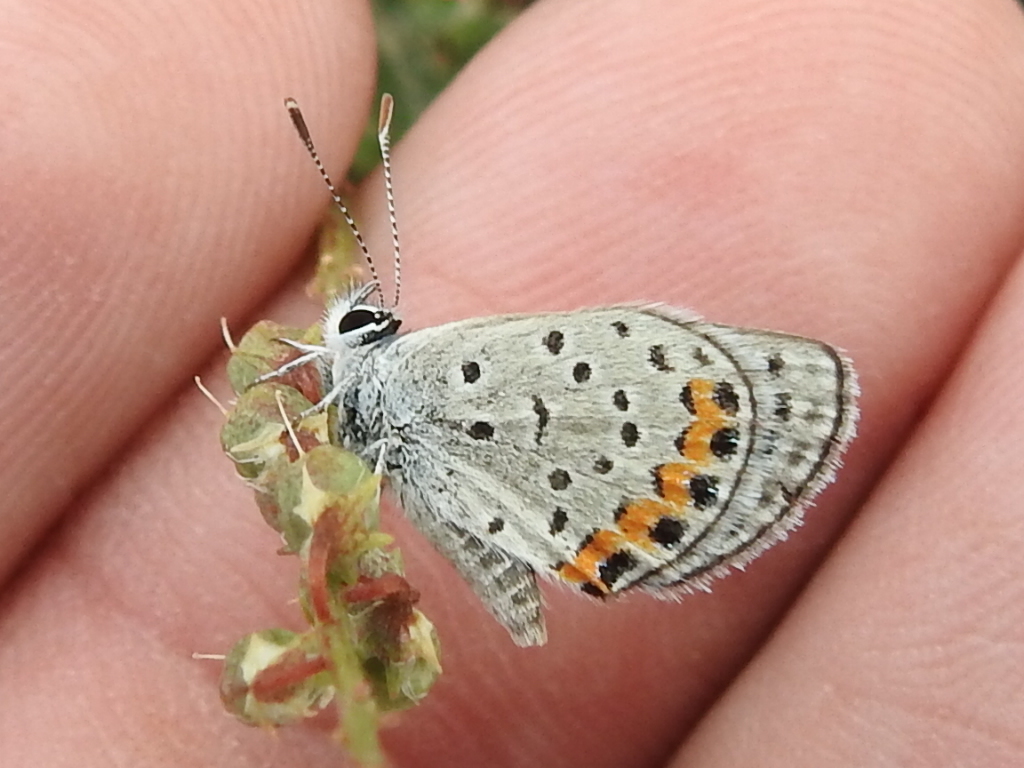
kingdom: Animalia
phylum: Arthropoda
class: Insecta
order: Lepidoptera
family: Lycaenidae
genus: Icaricia
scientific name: Icaricia lupini
